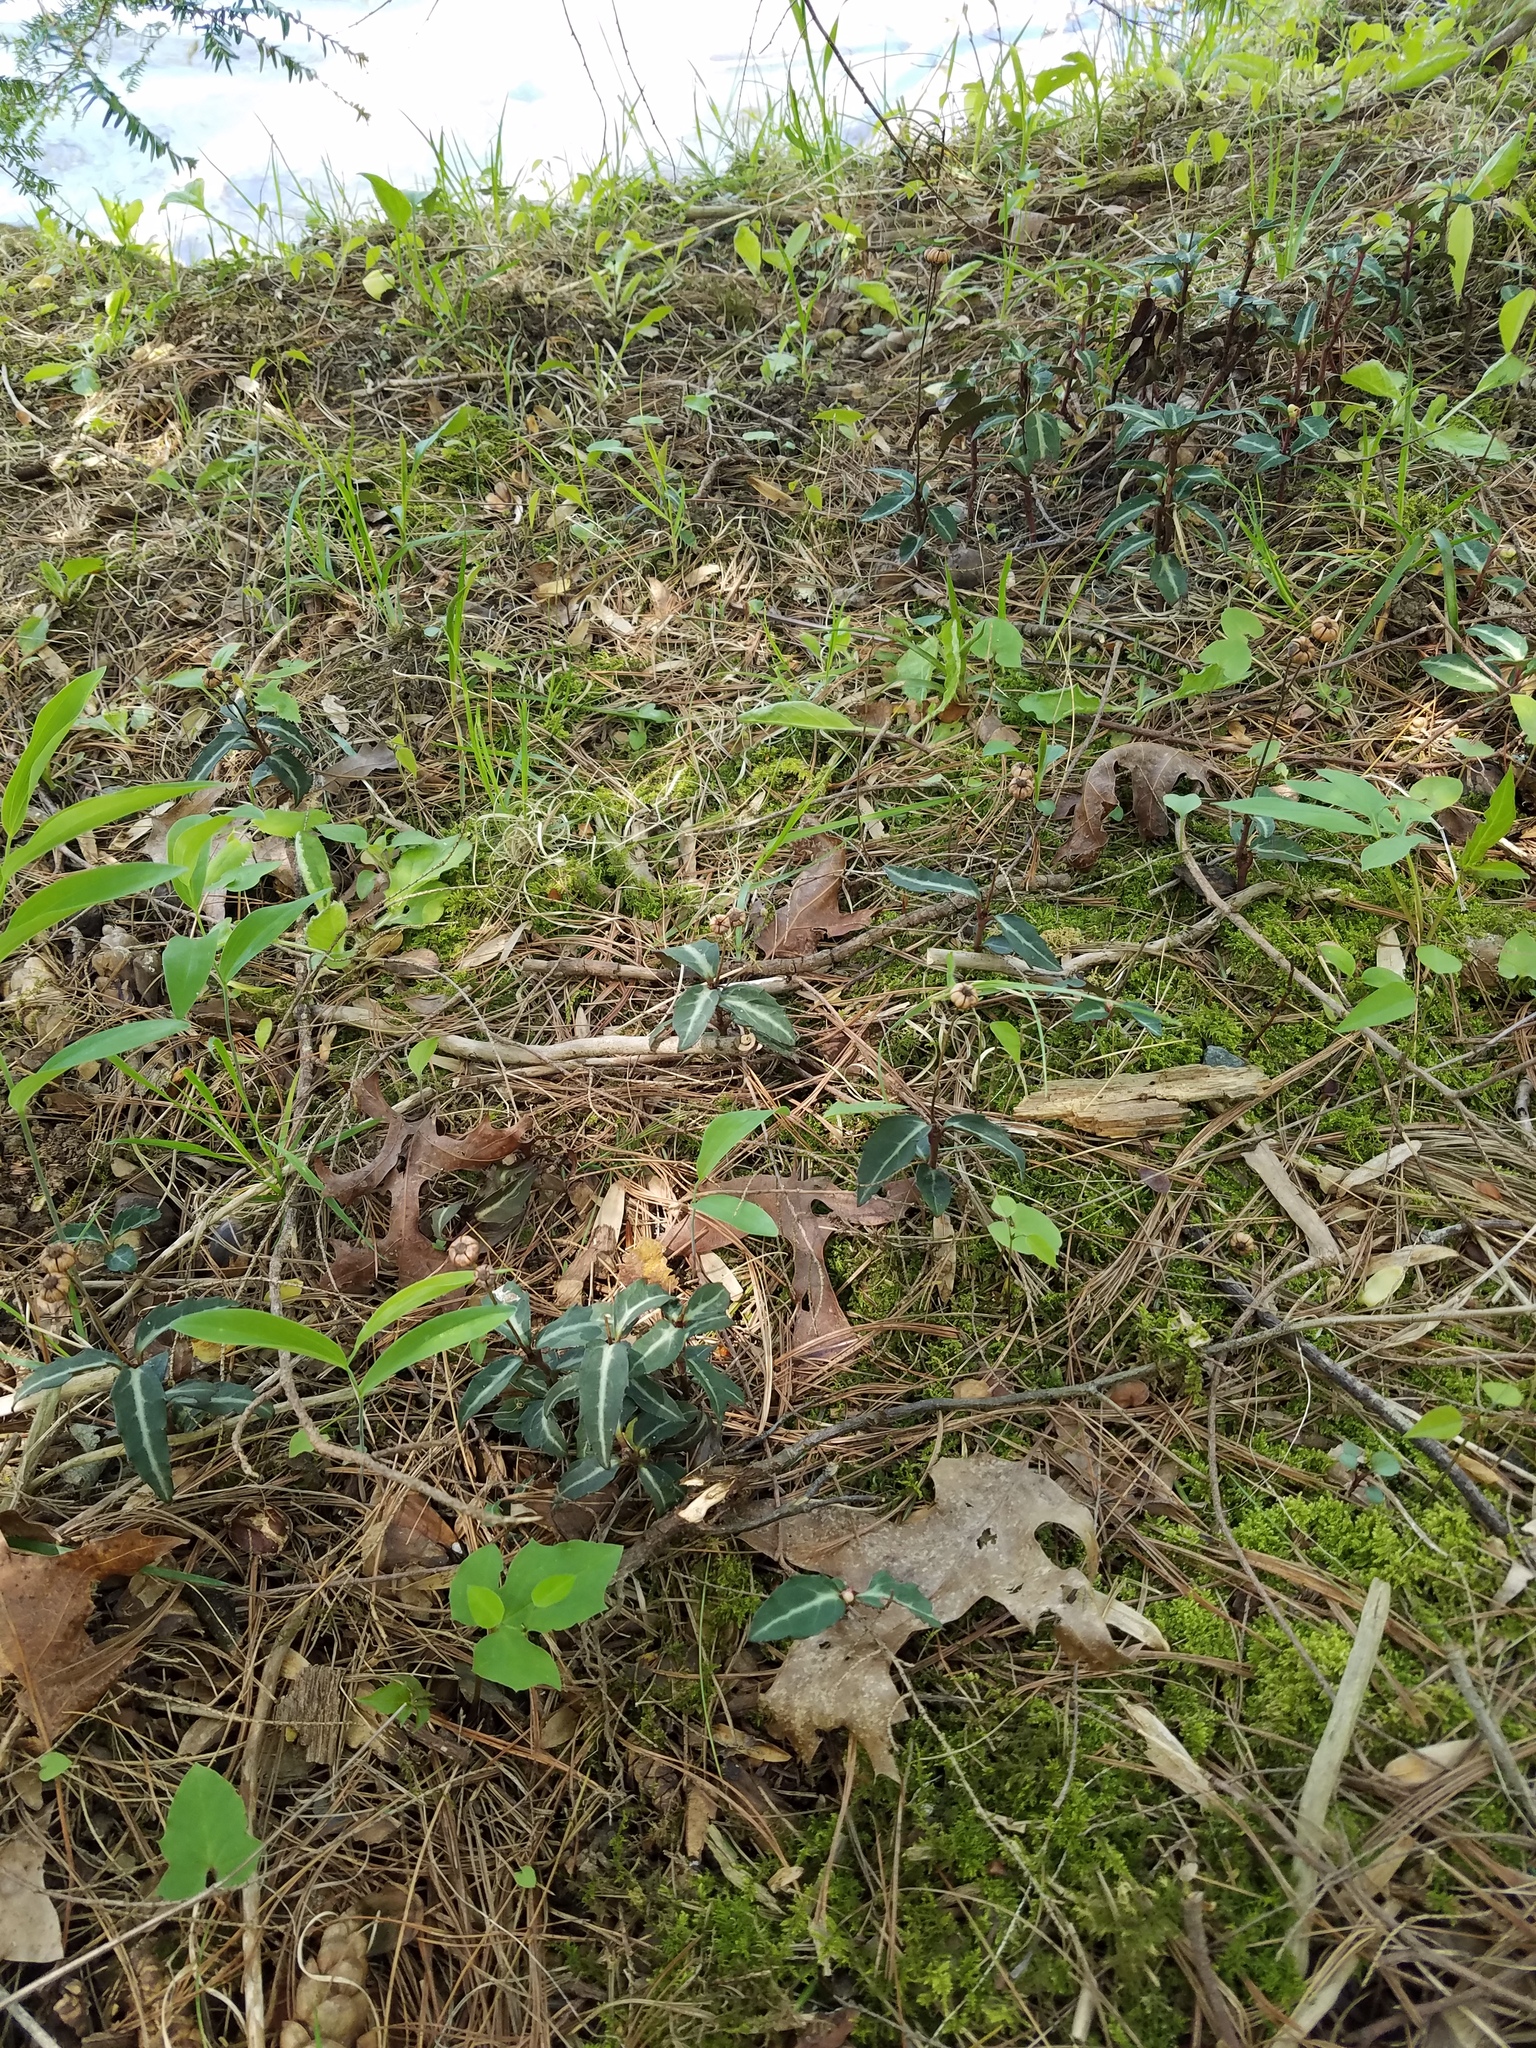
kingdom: Plantae
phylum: Tracheophyta
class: Magnoliopsida
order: Ericales
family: Ericaceae
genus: Chimaphila
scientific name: Chimaphila maculata
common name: Spotted pipsissewa
